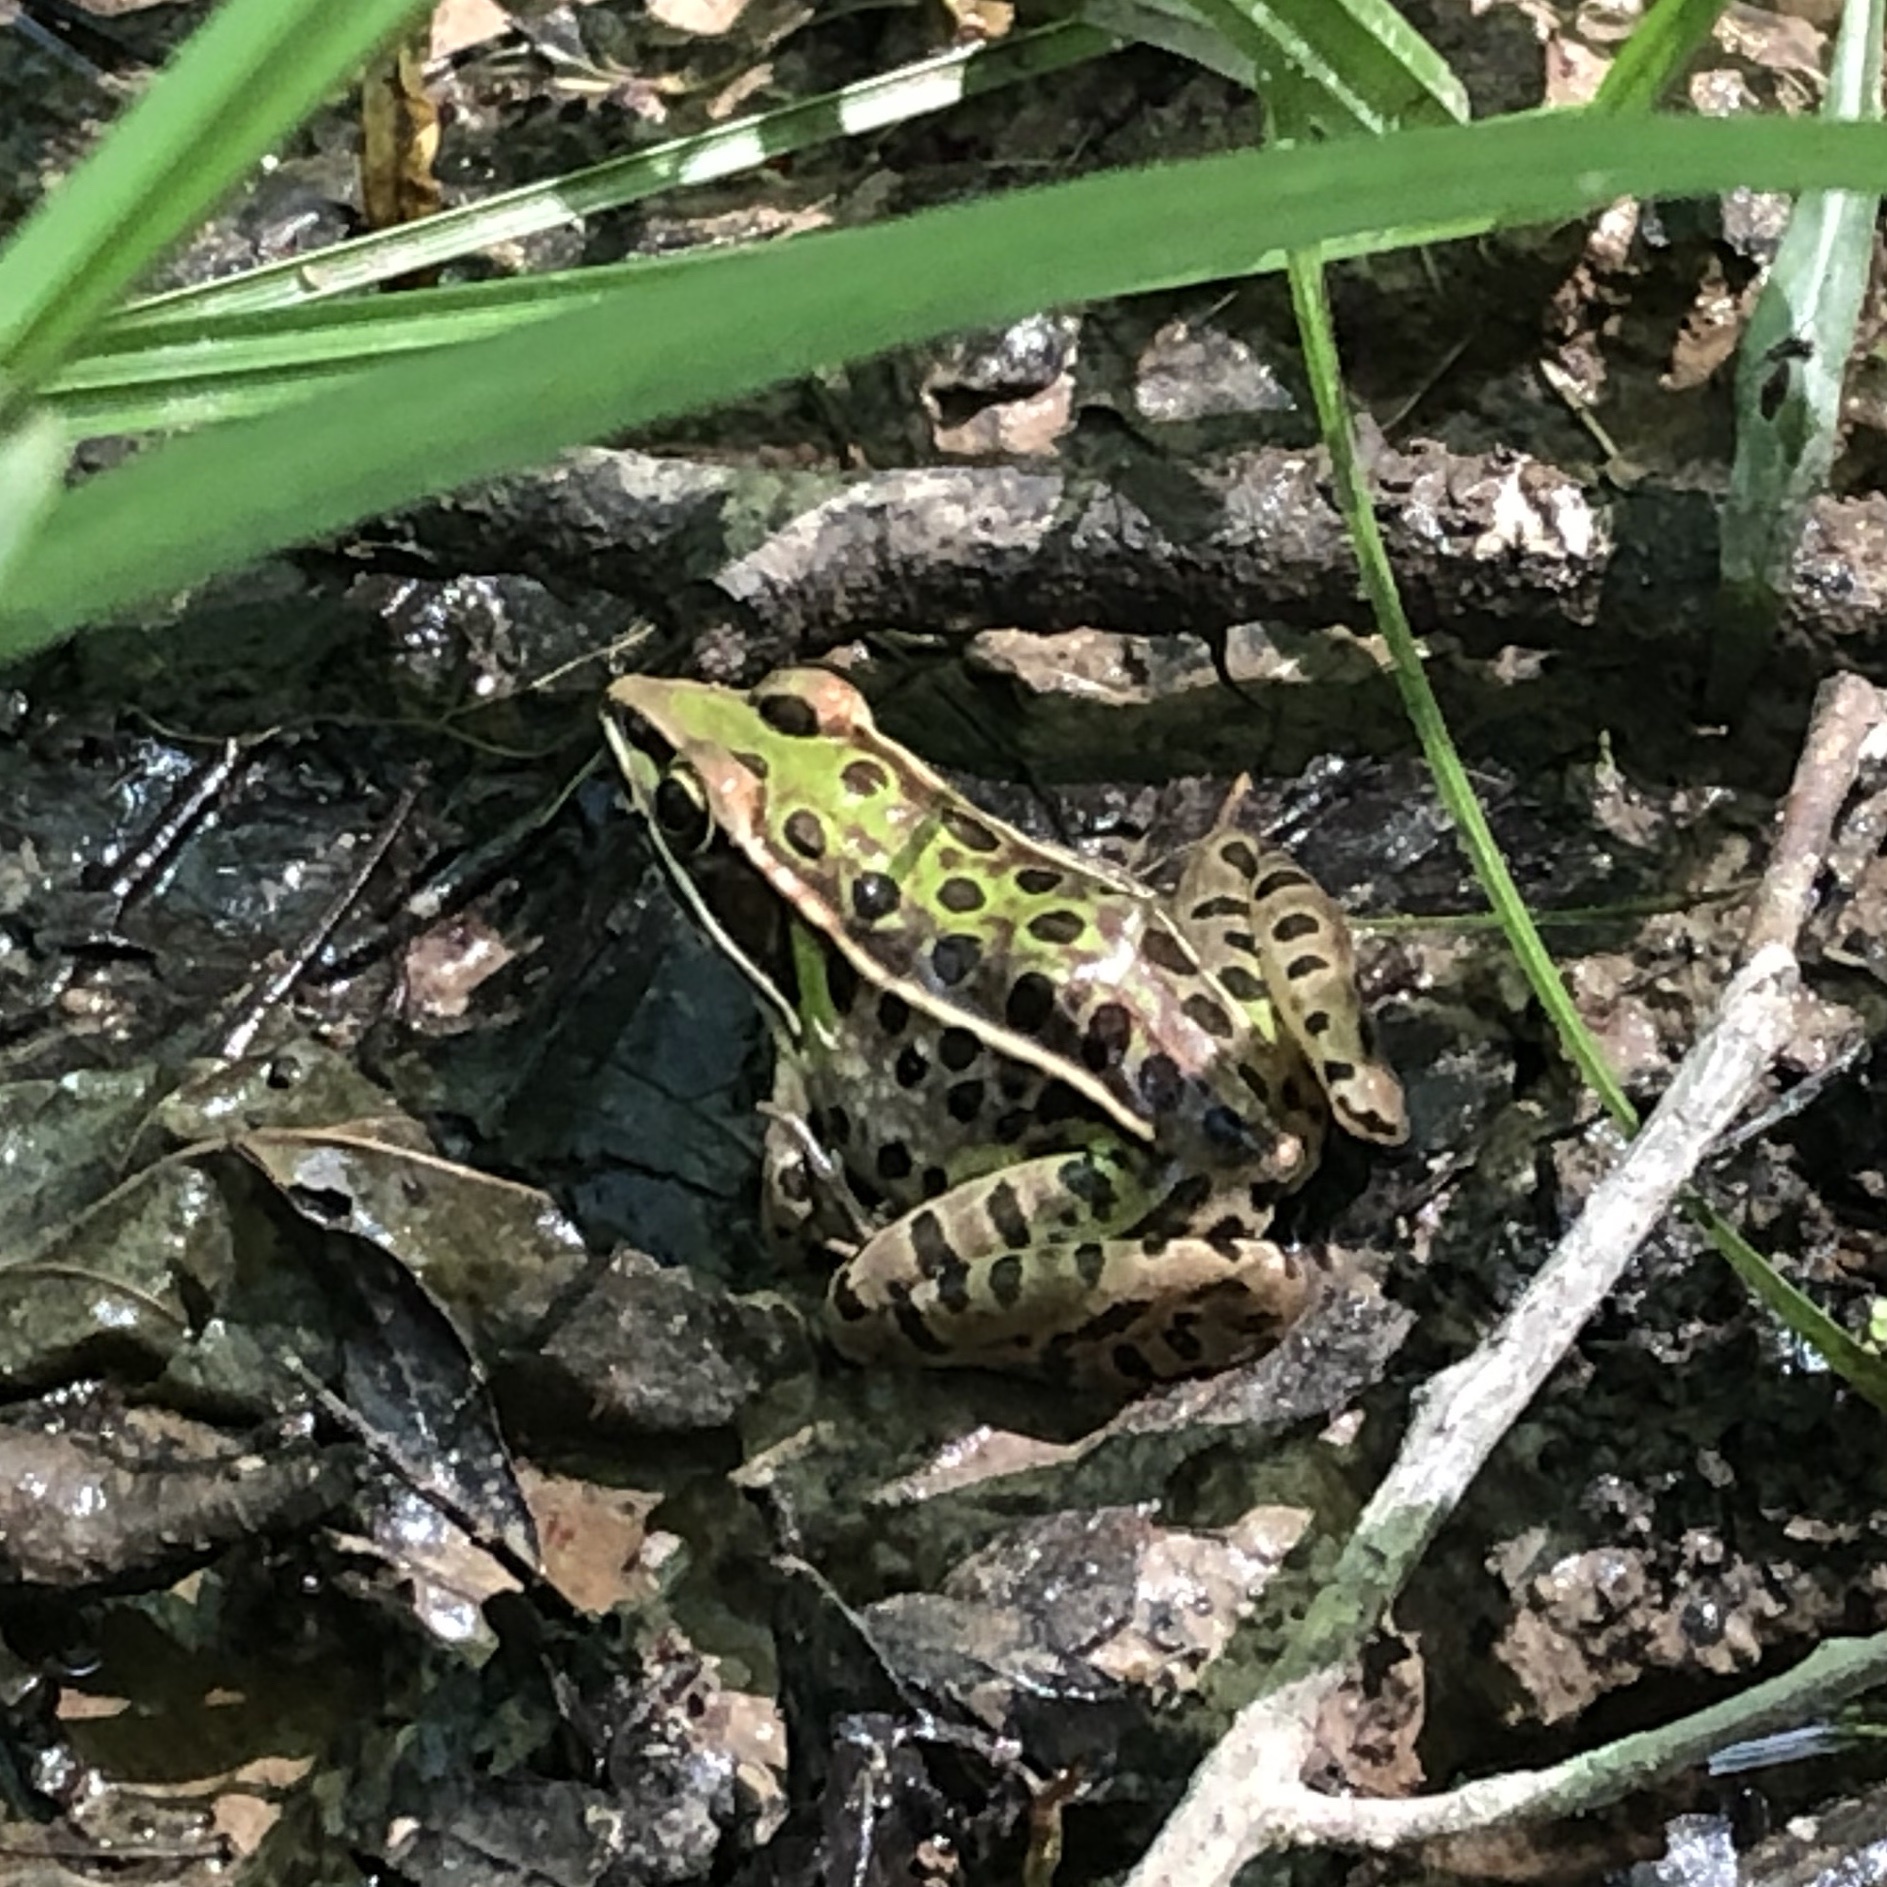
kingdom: Animalia
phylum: Chordata
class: Amphibia
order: Anura
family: Ranidae
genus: Lithobates
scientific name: Lithobates sphenocephalus
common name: Southern leopard frog
